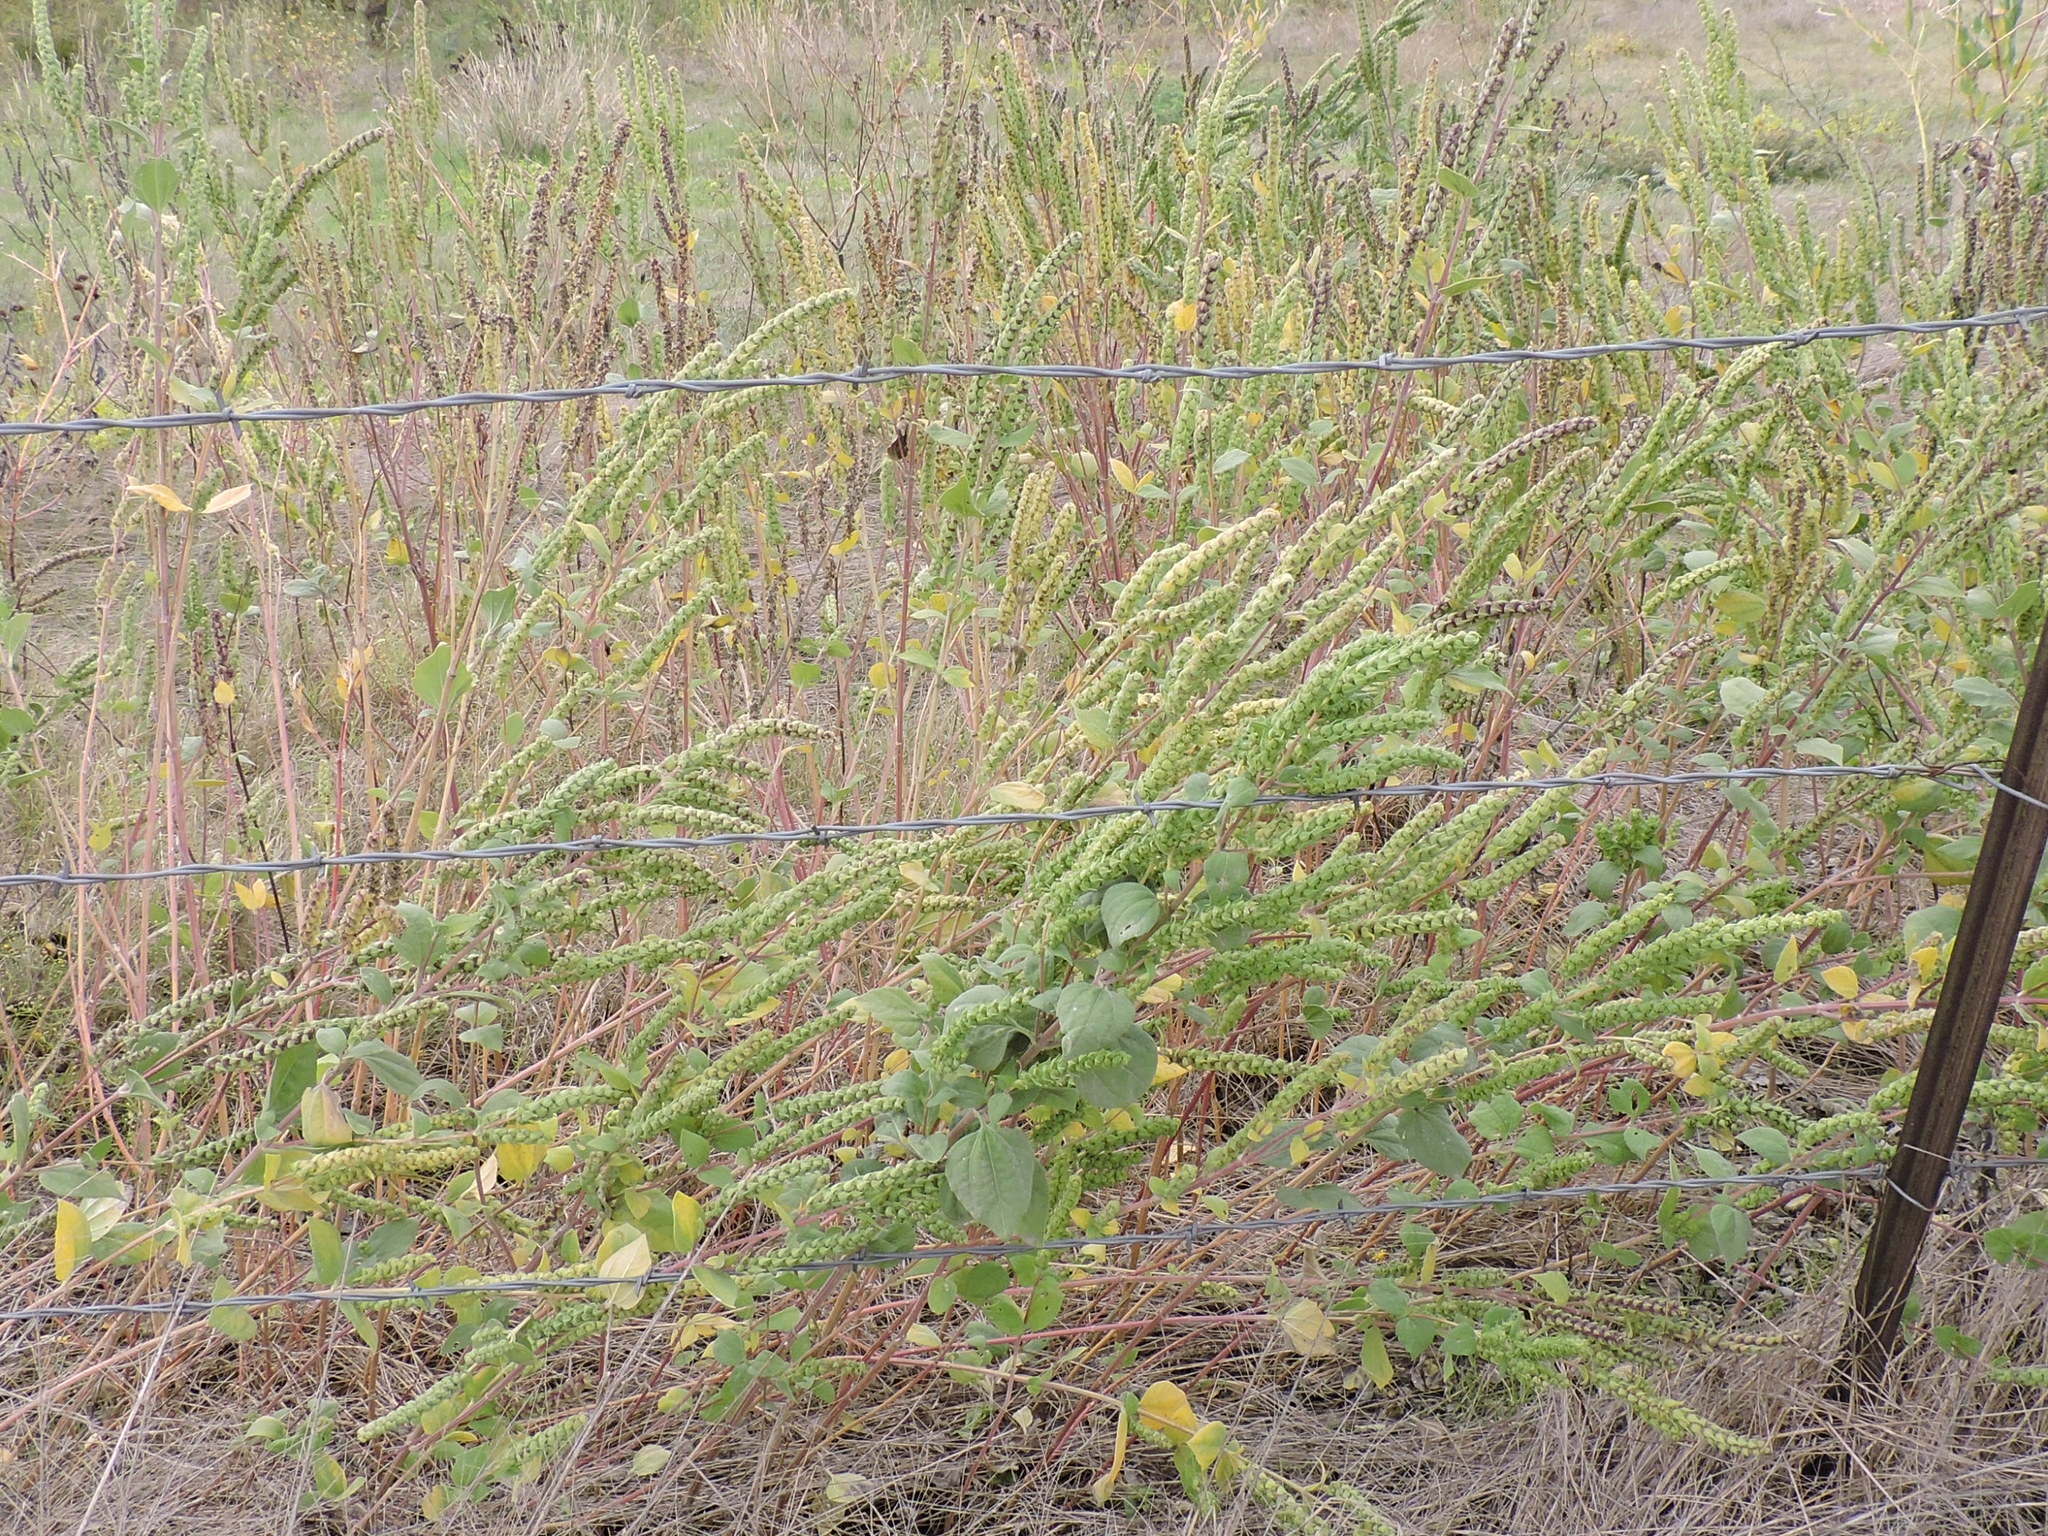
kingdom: Plantae
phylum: Tracheophyta
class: Magnoliopsida
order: Asterales
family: Asteraceae
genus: Iva
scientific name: Iva annua
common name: Marsh-elder
